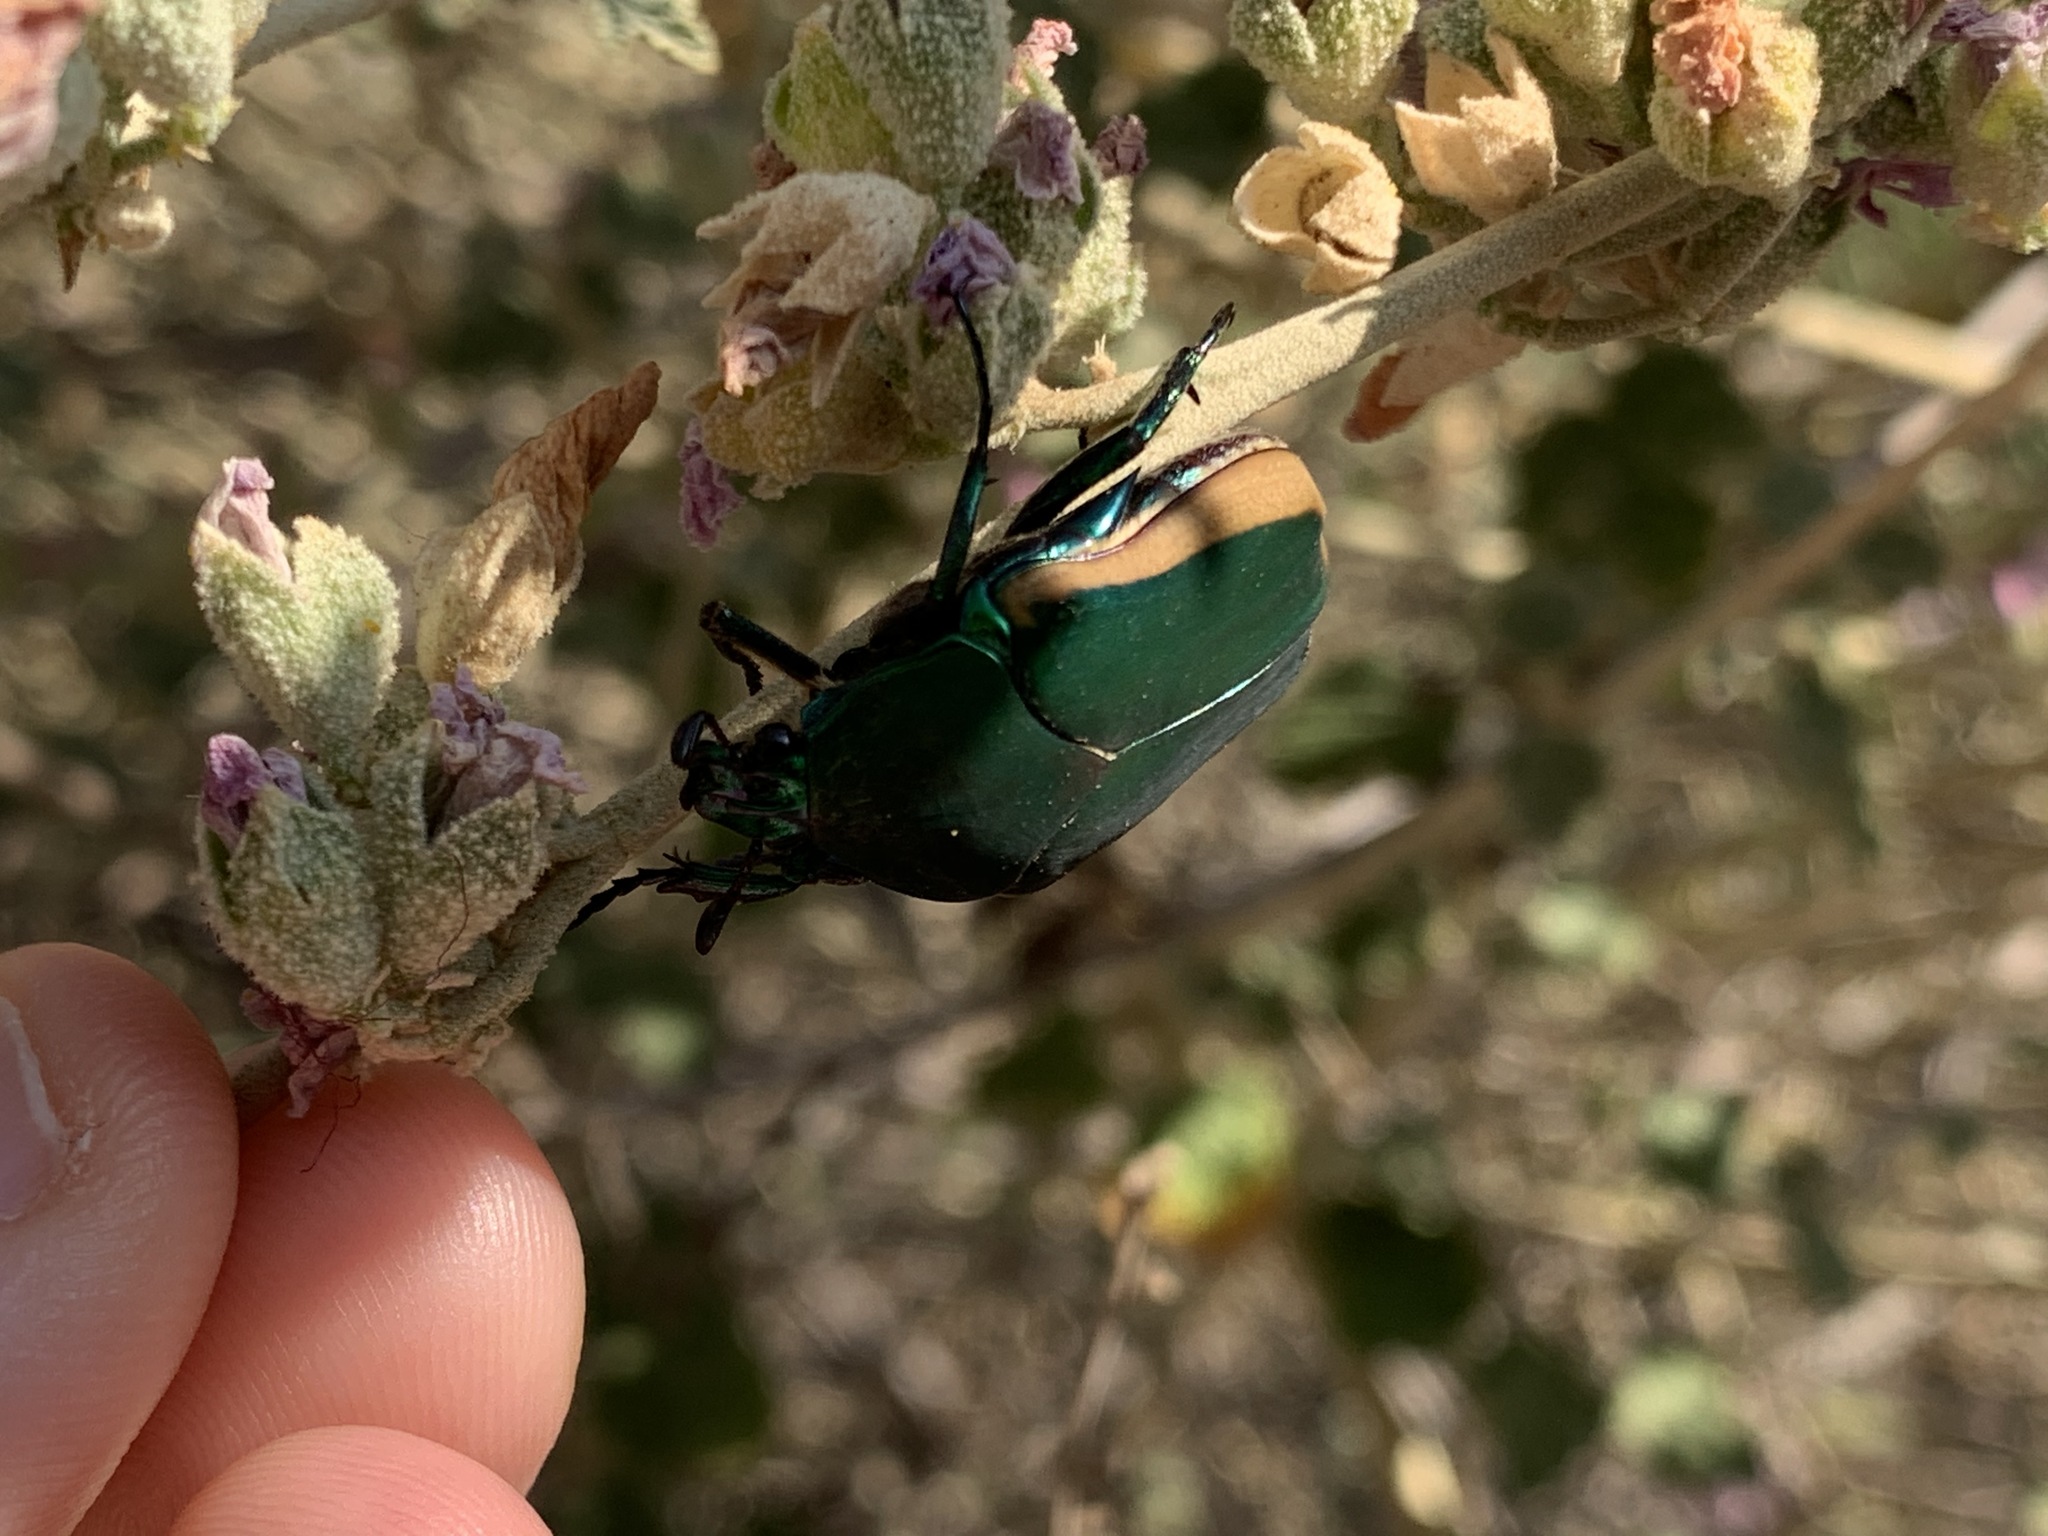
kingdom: Animalia
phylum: Arthropoda
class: Insecta
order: Coleoptera
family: Scarabaeidae
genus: Cotinis
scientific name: Cotinis mutabilis
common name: Figeater beetle
